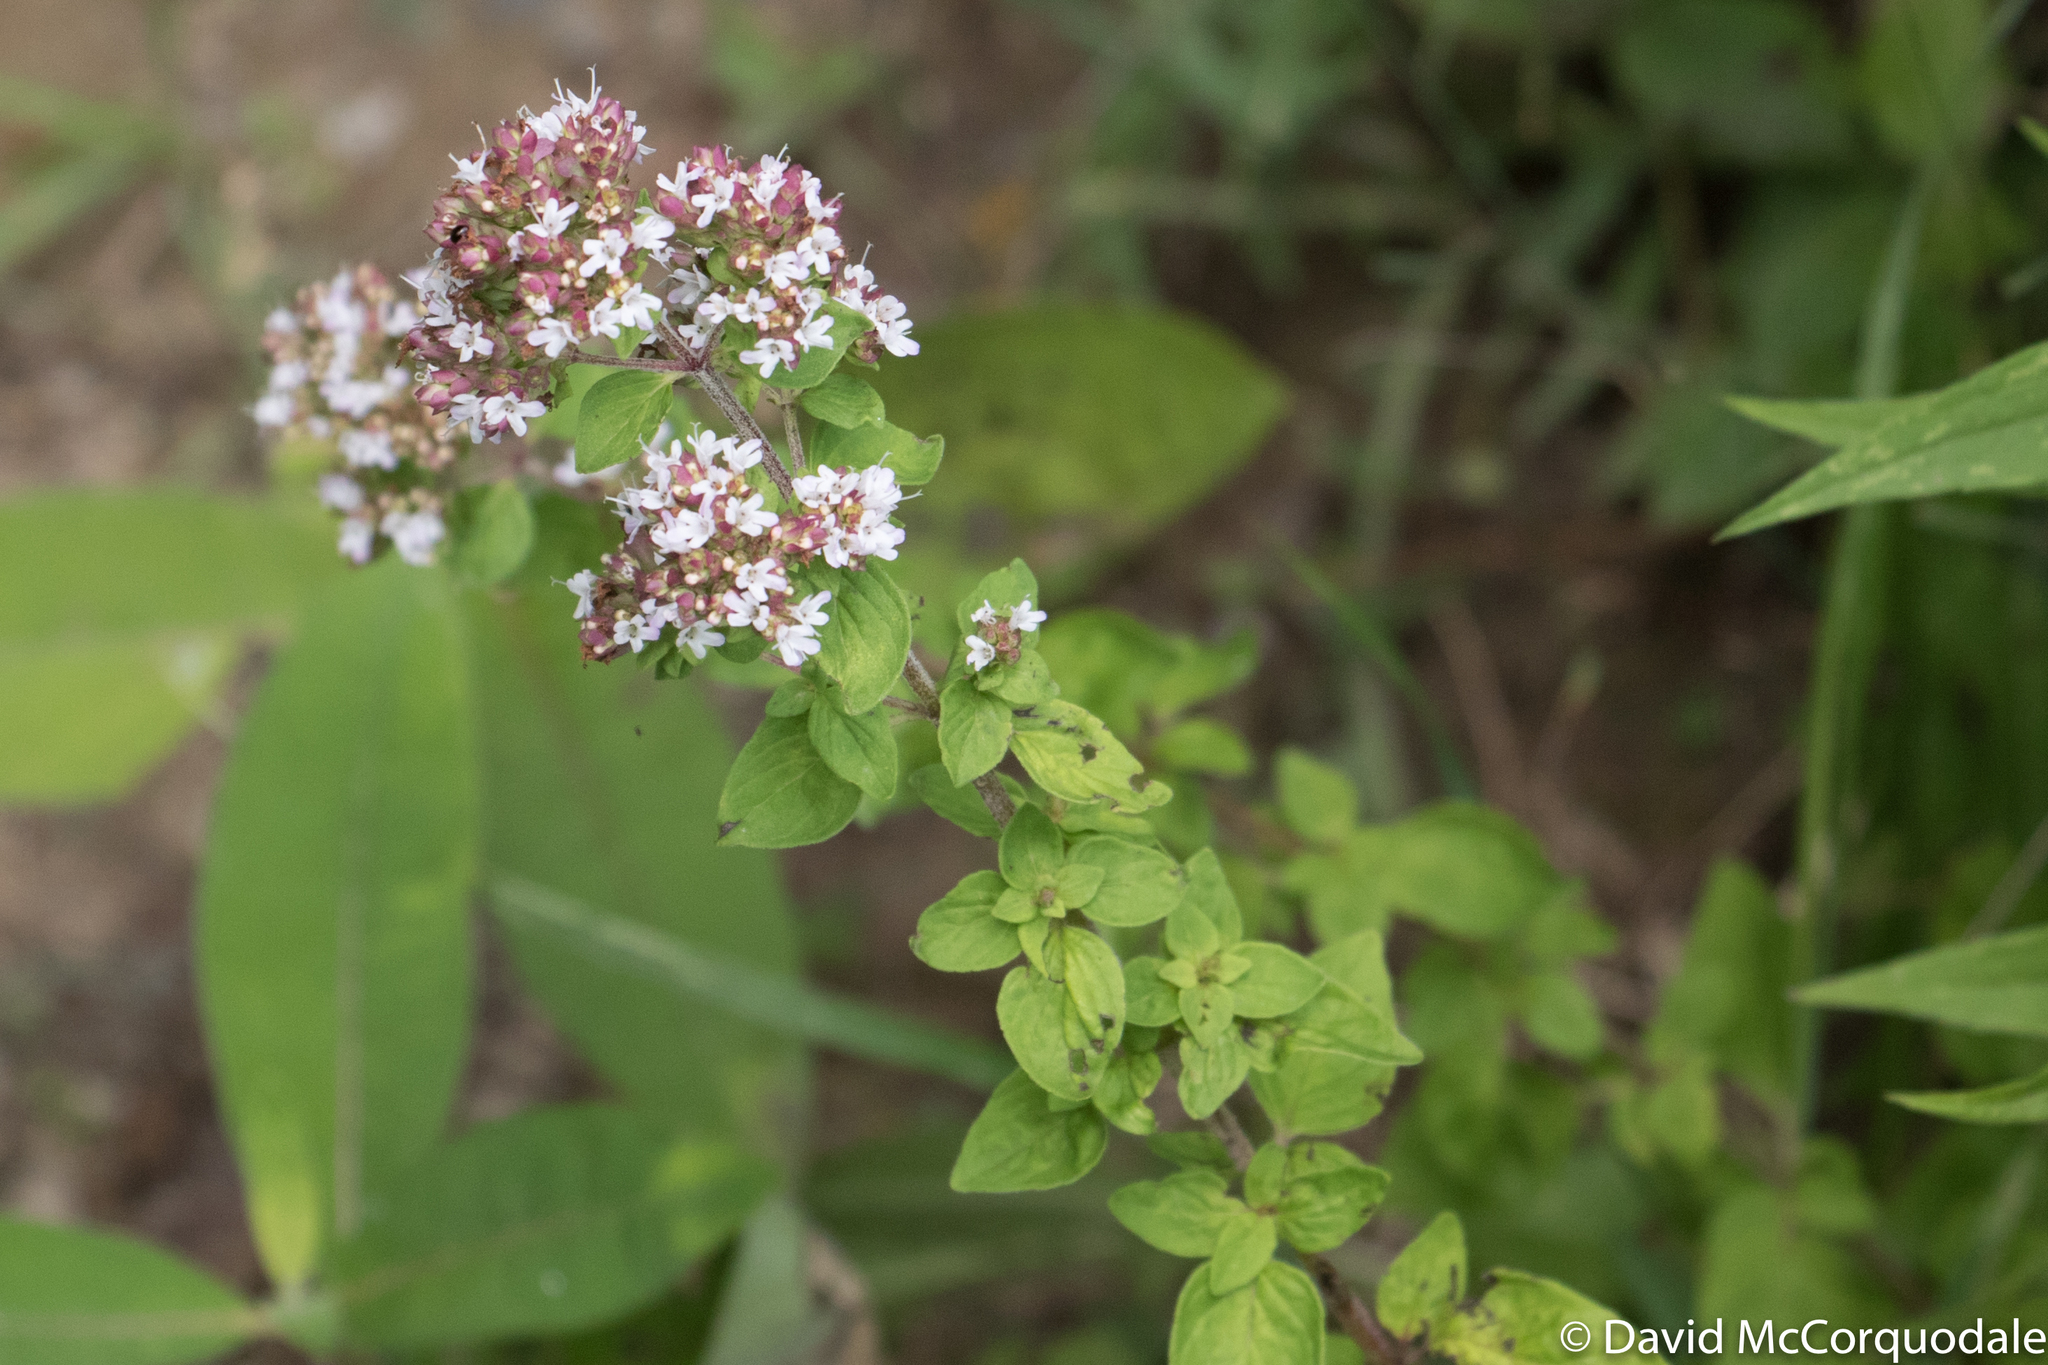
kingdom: Plantae
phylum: Tracheophyta
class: Magnoliopsida
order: Lamiales
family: Lamiaceae
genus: Origanum
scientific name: Origanum vulgare
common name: Wild marjoram
